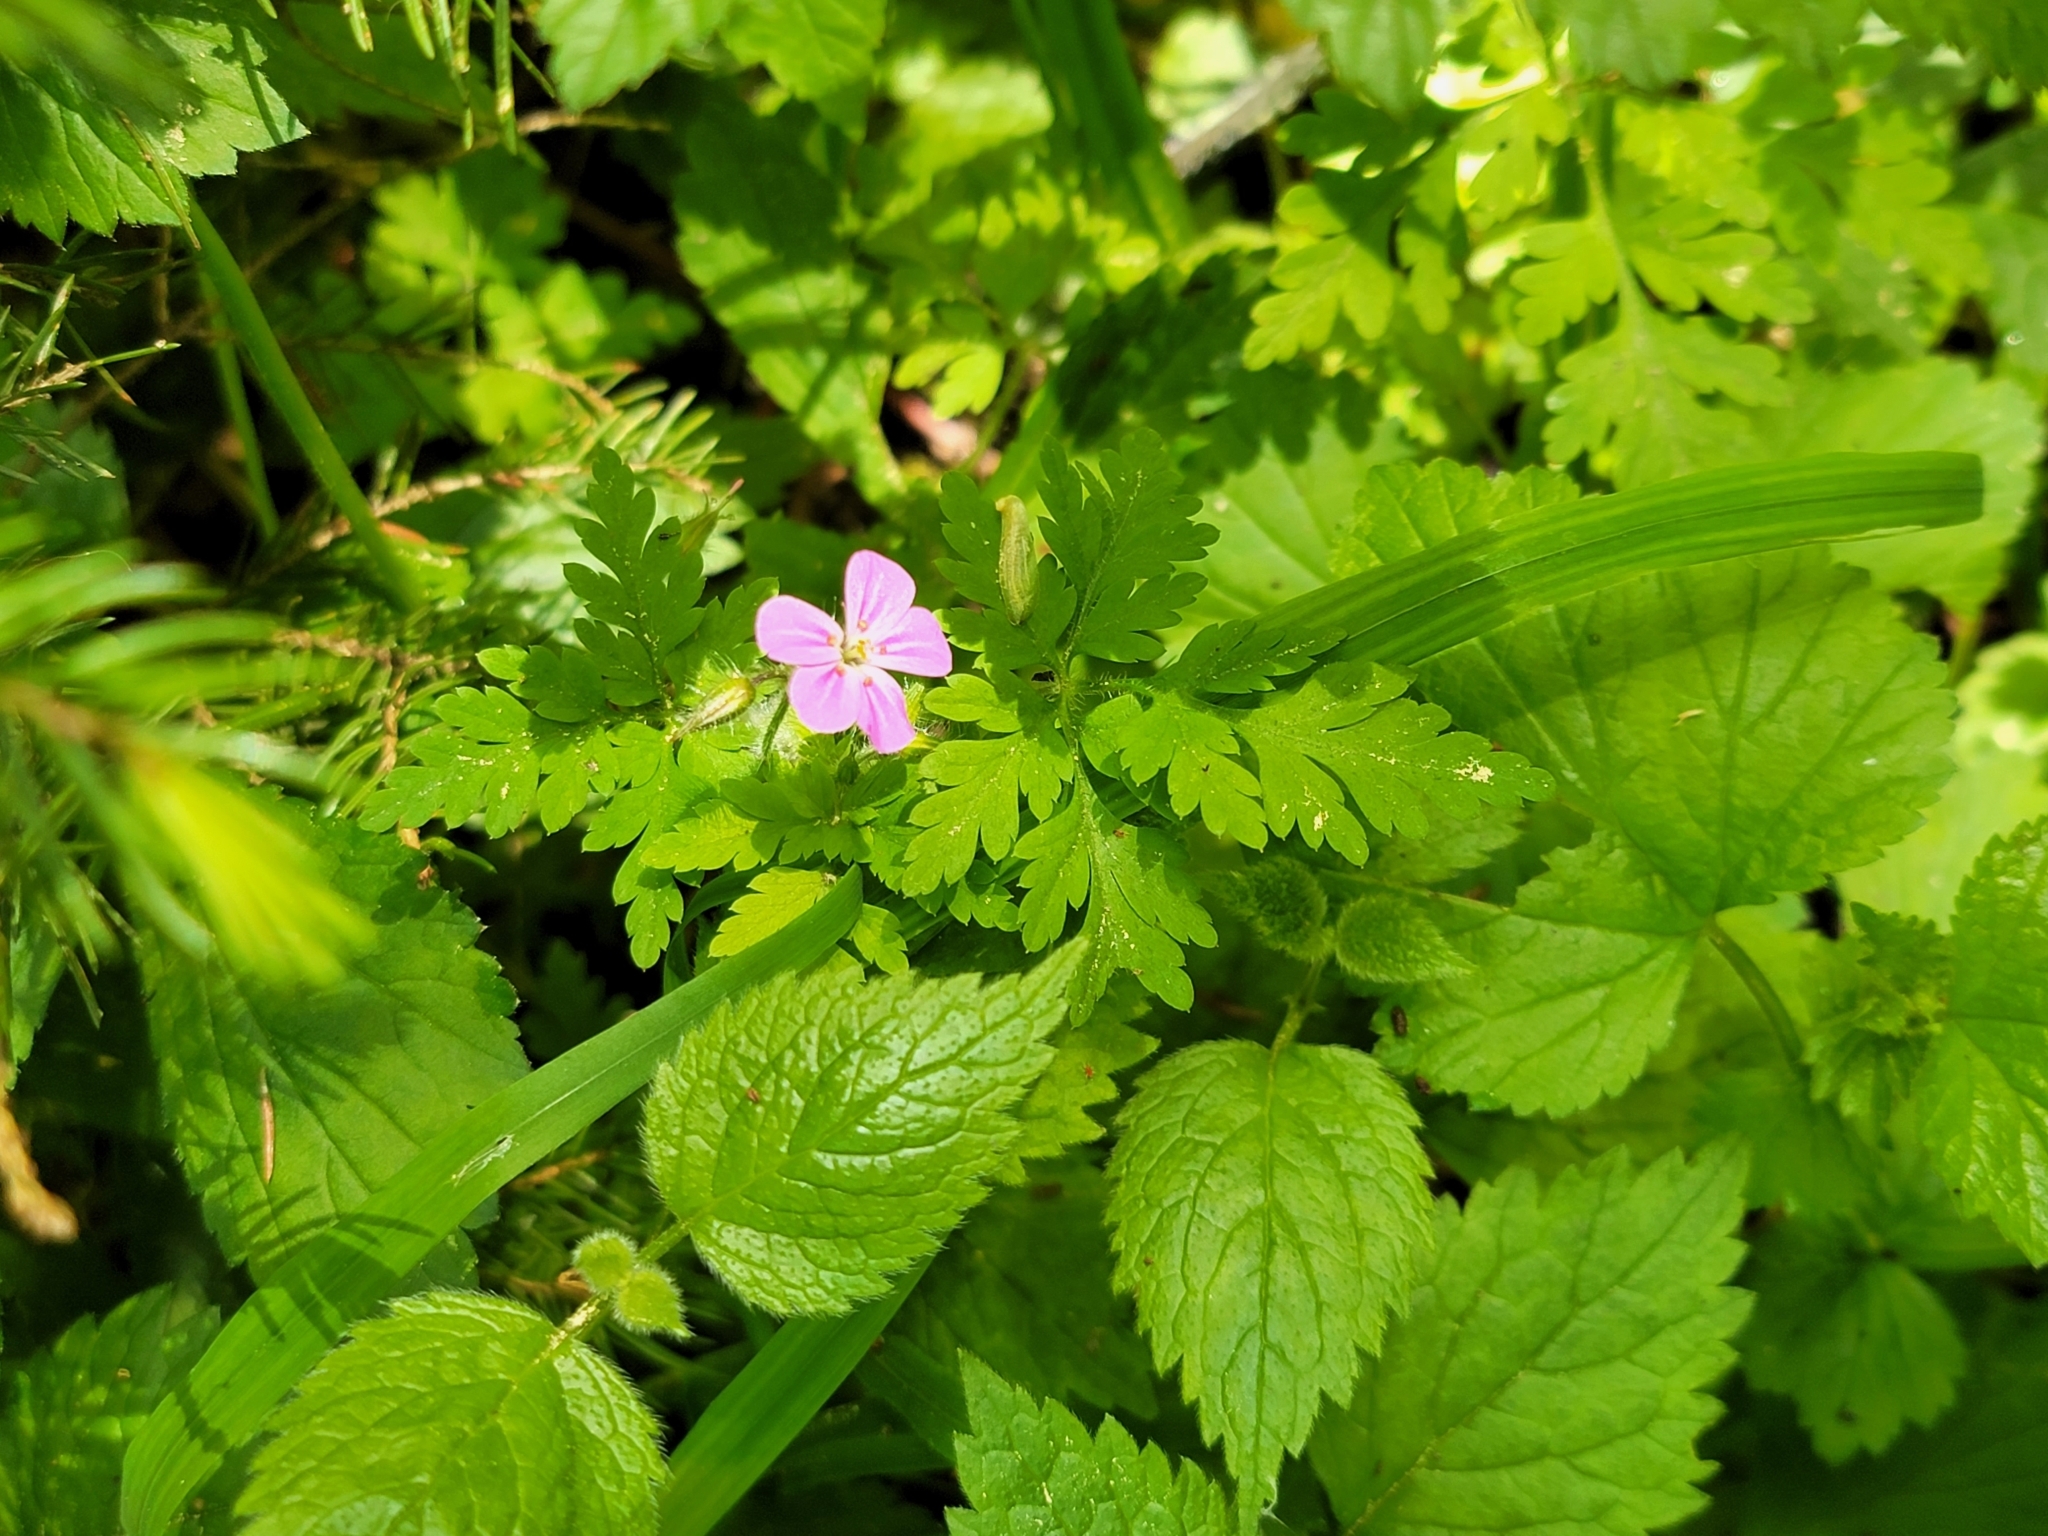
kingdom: Plantae
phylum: Tracheophyta
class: Magnoliopsida
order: Geraniales
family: Geraniaceae
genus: Geranium
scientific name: Geranium robertianum
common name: Herb-robert
